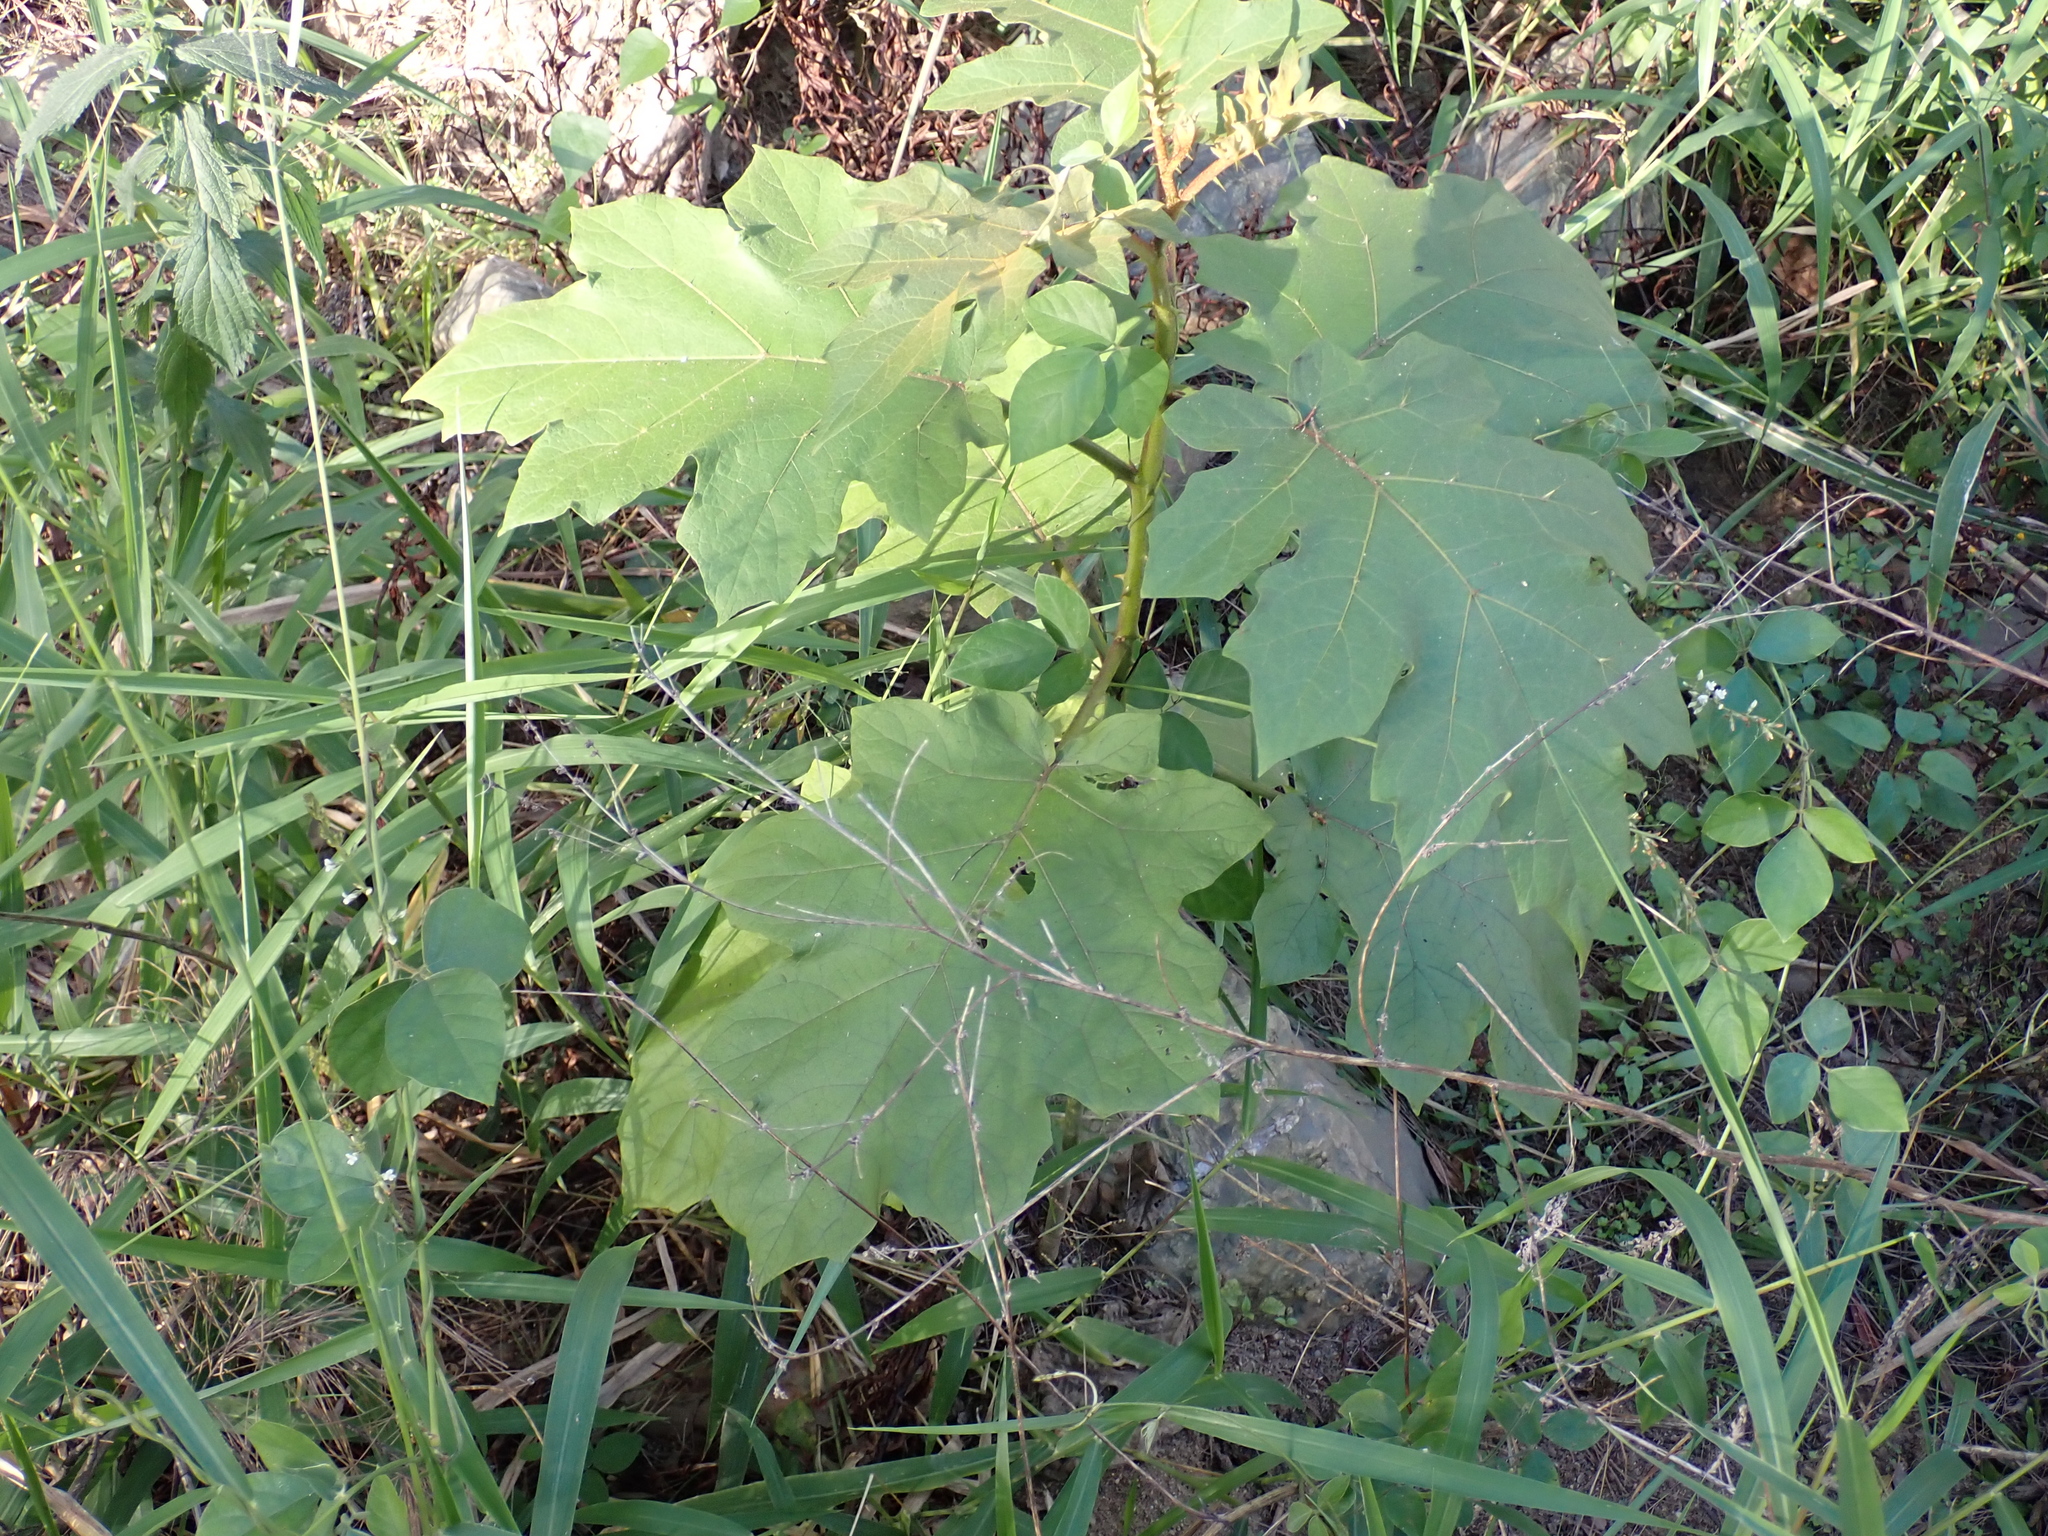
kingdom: Plantae
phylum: Tracheophyta
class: Magnoliopsida
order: Solanales
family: Solanaceae
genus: Solanum
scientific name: Solanum chrysotrichum
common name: Nightshade
